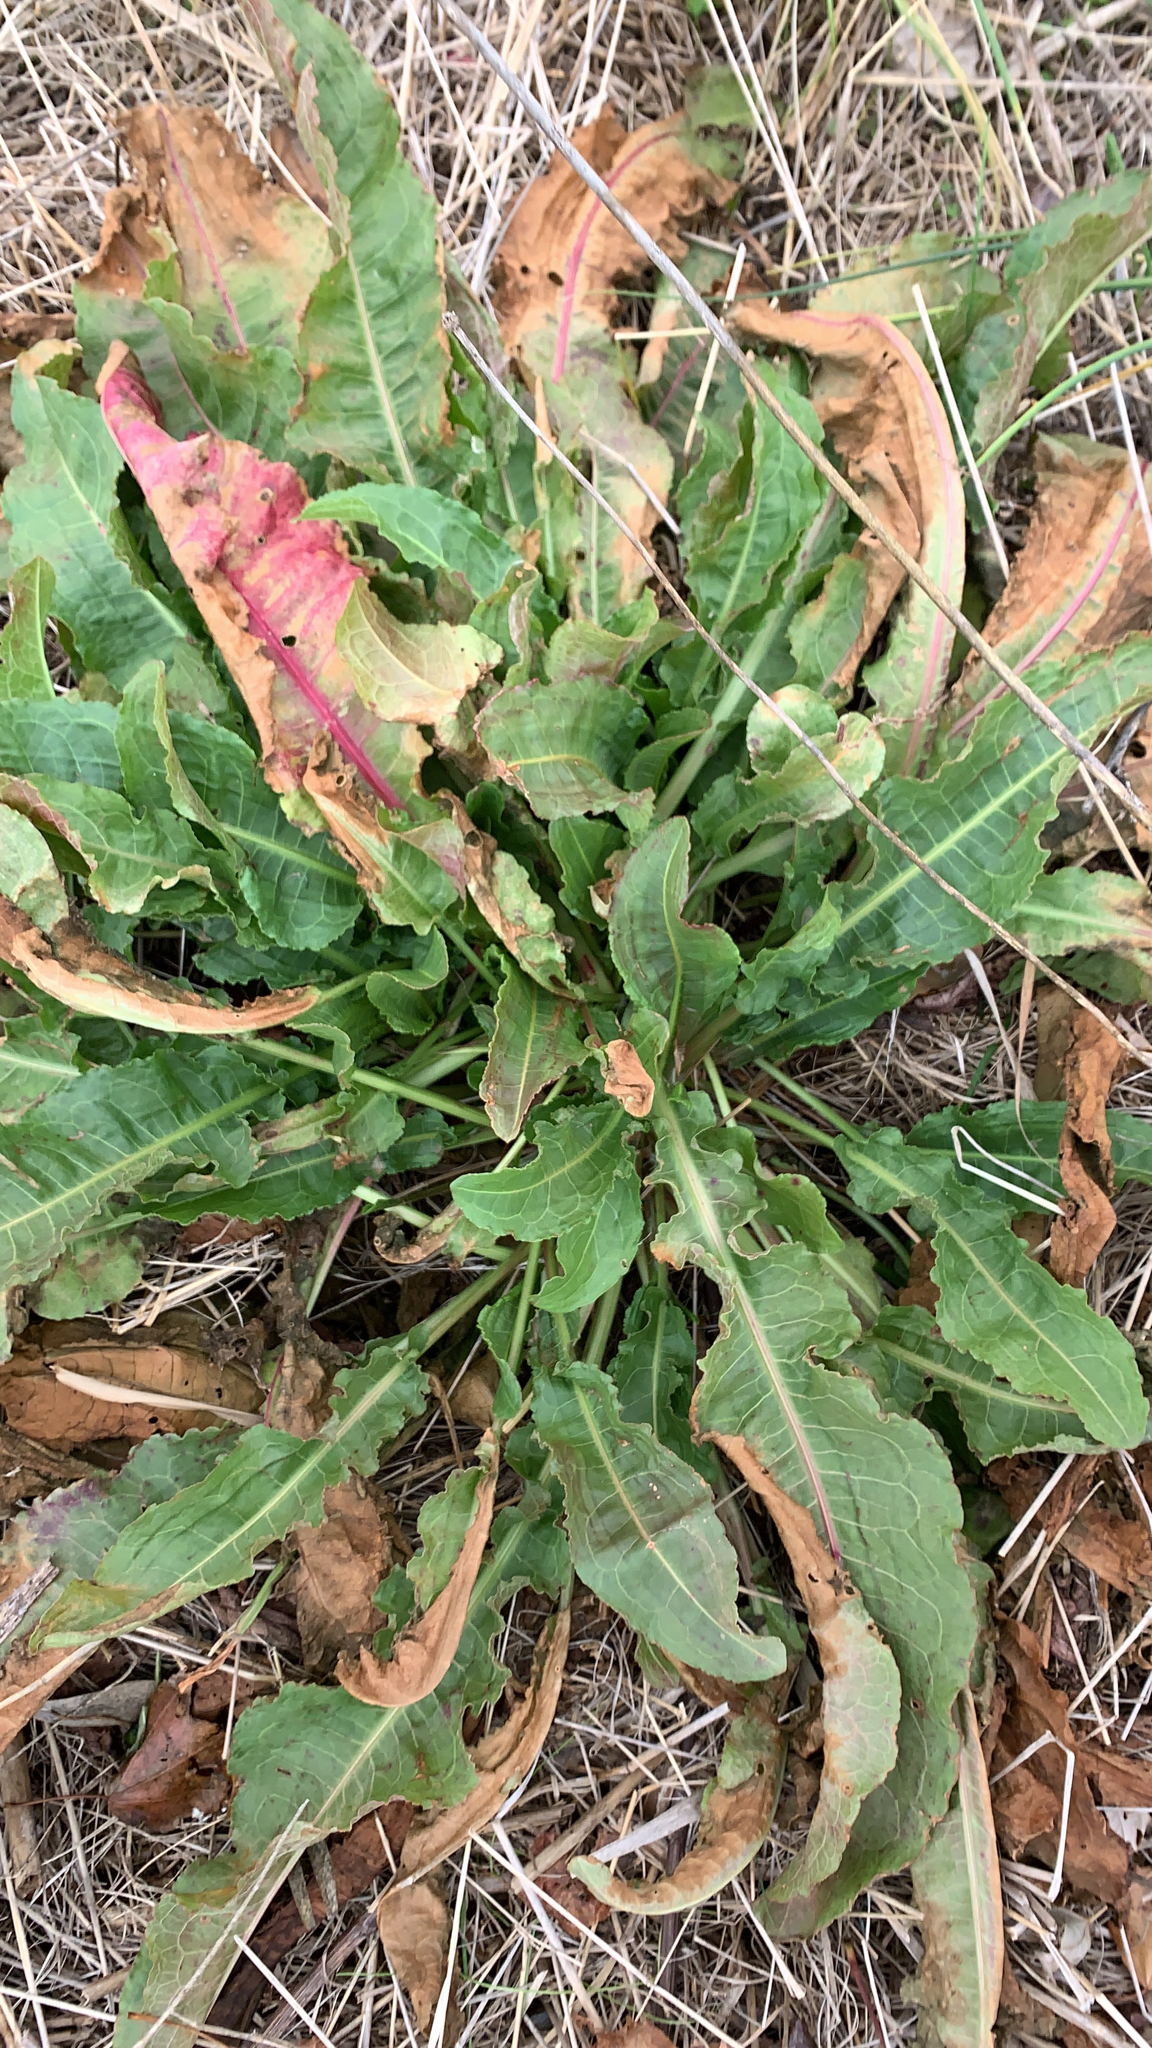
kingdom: Plantae
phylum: Tracheophyta
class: Magnoliopsida
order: Caryophyllales
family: Polygonaceae
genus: Rumex
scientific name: Rumex crispus
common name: Curled dock
